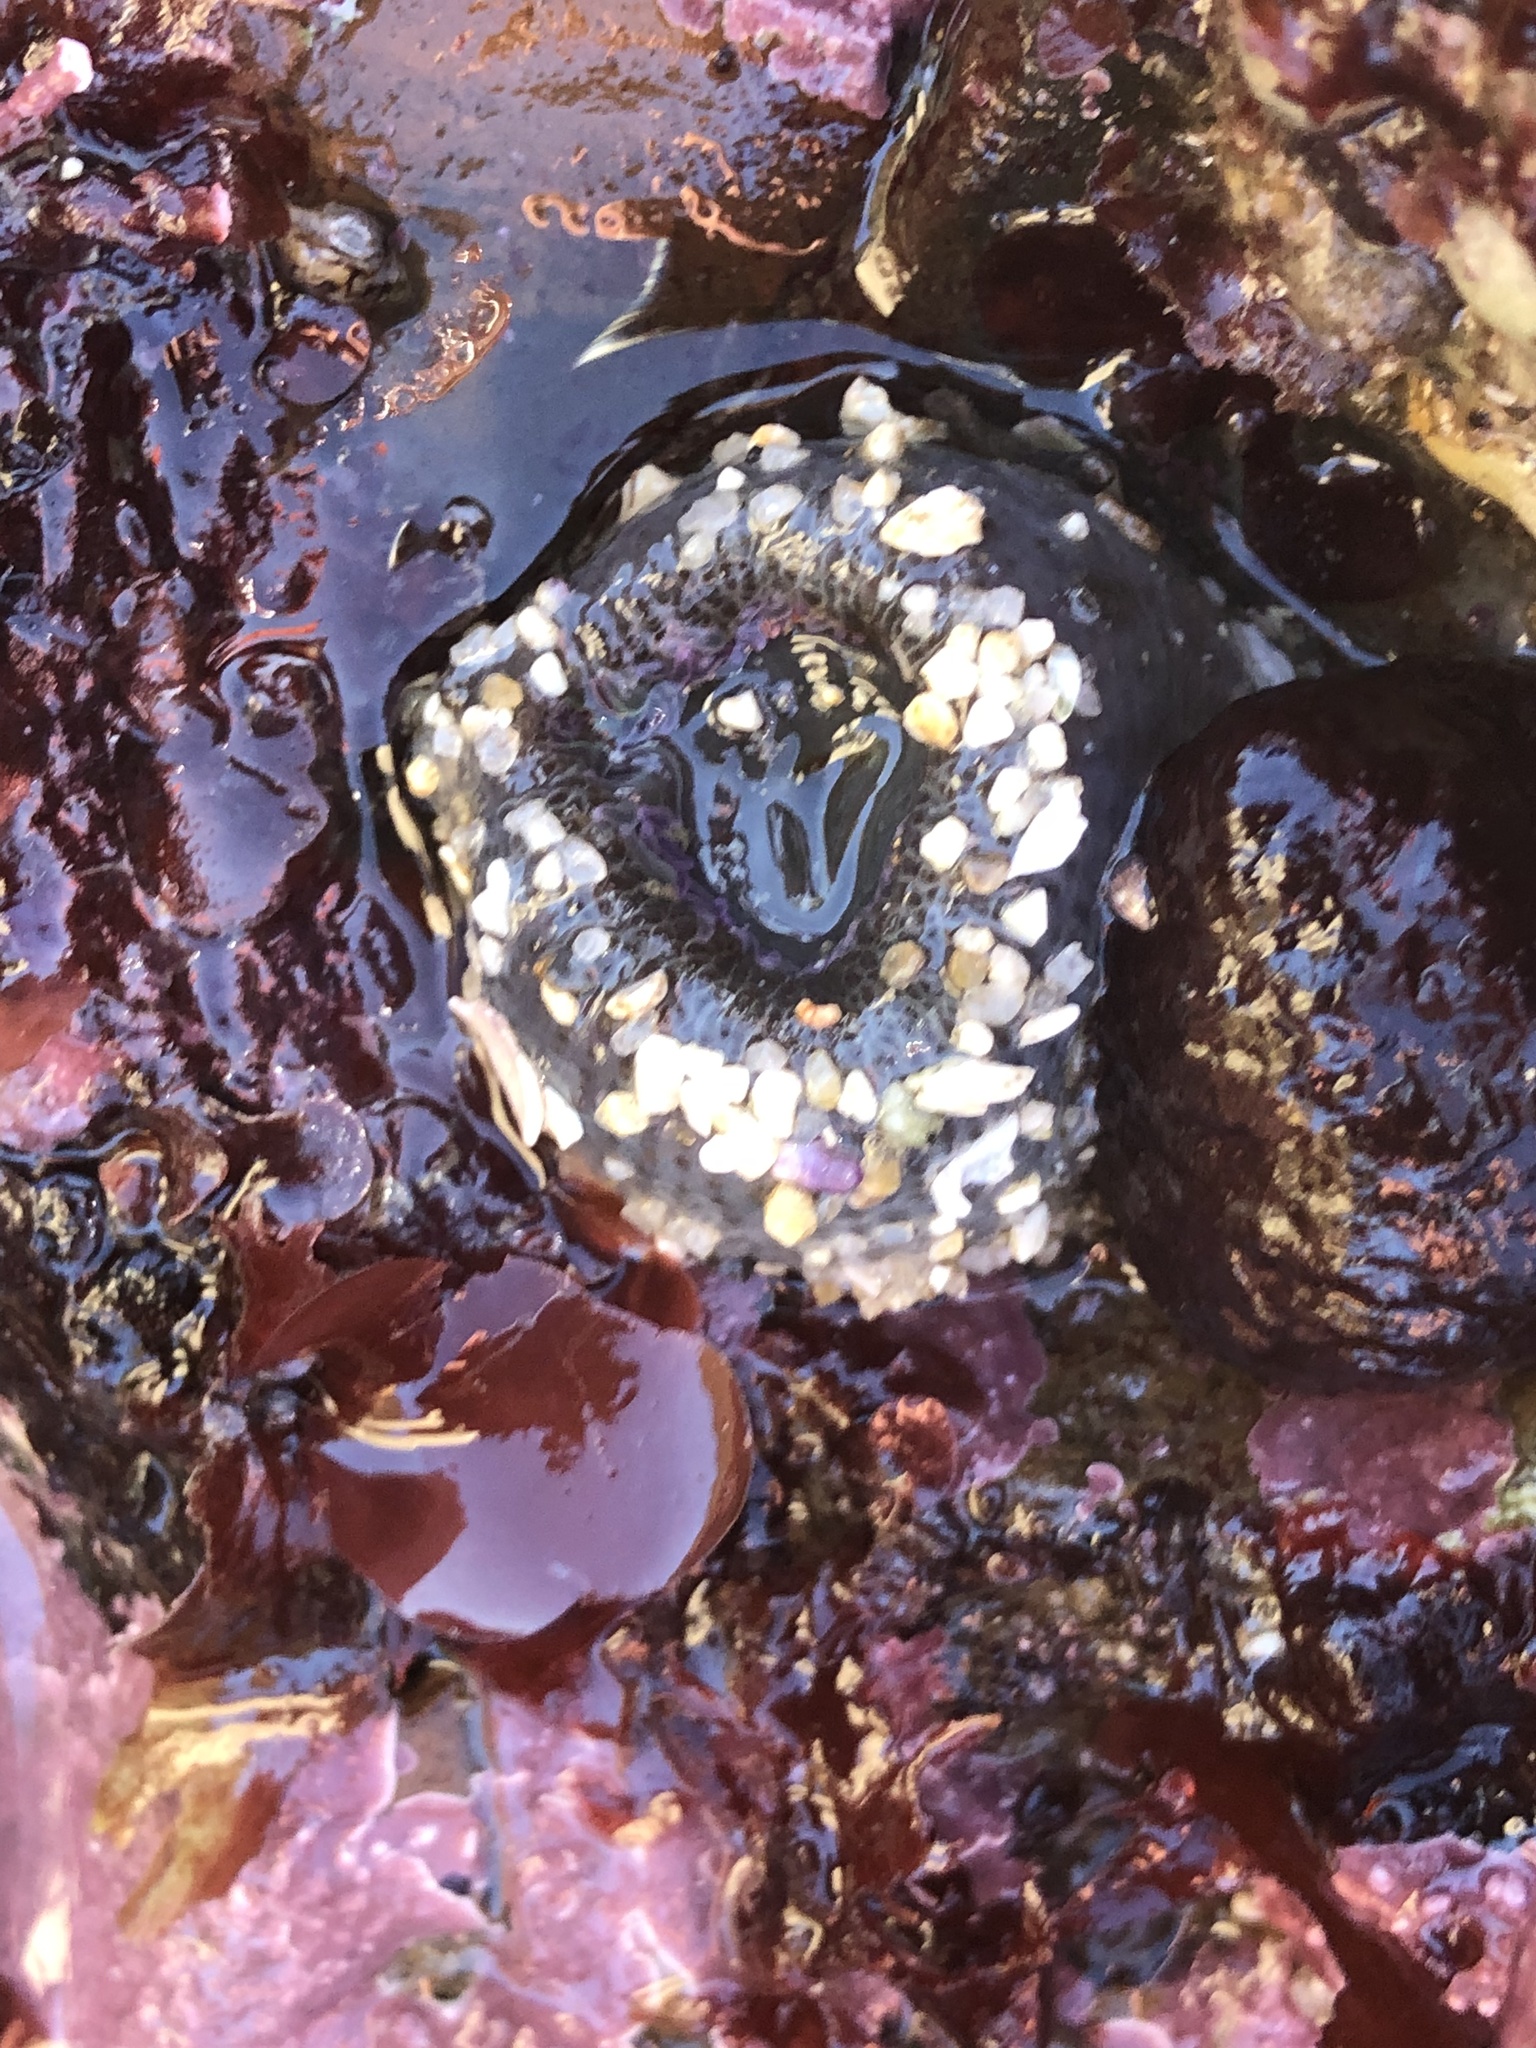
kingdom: Animalia
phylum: Cnidaria
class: Anthozoa
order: Actiniaria
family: Actiniidae
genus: Anthopleura
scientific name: Anthopleura elegantissima
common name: Clonal anemone
